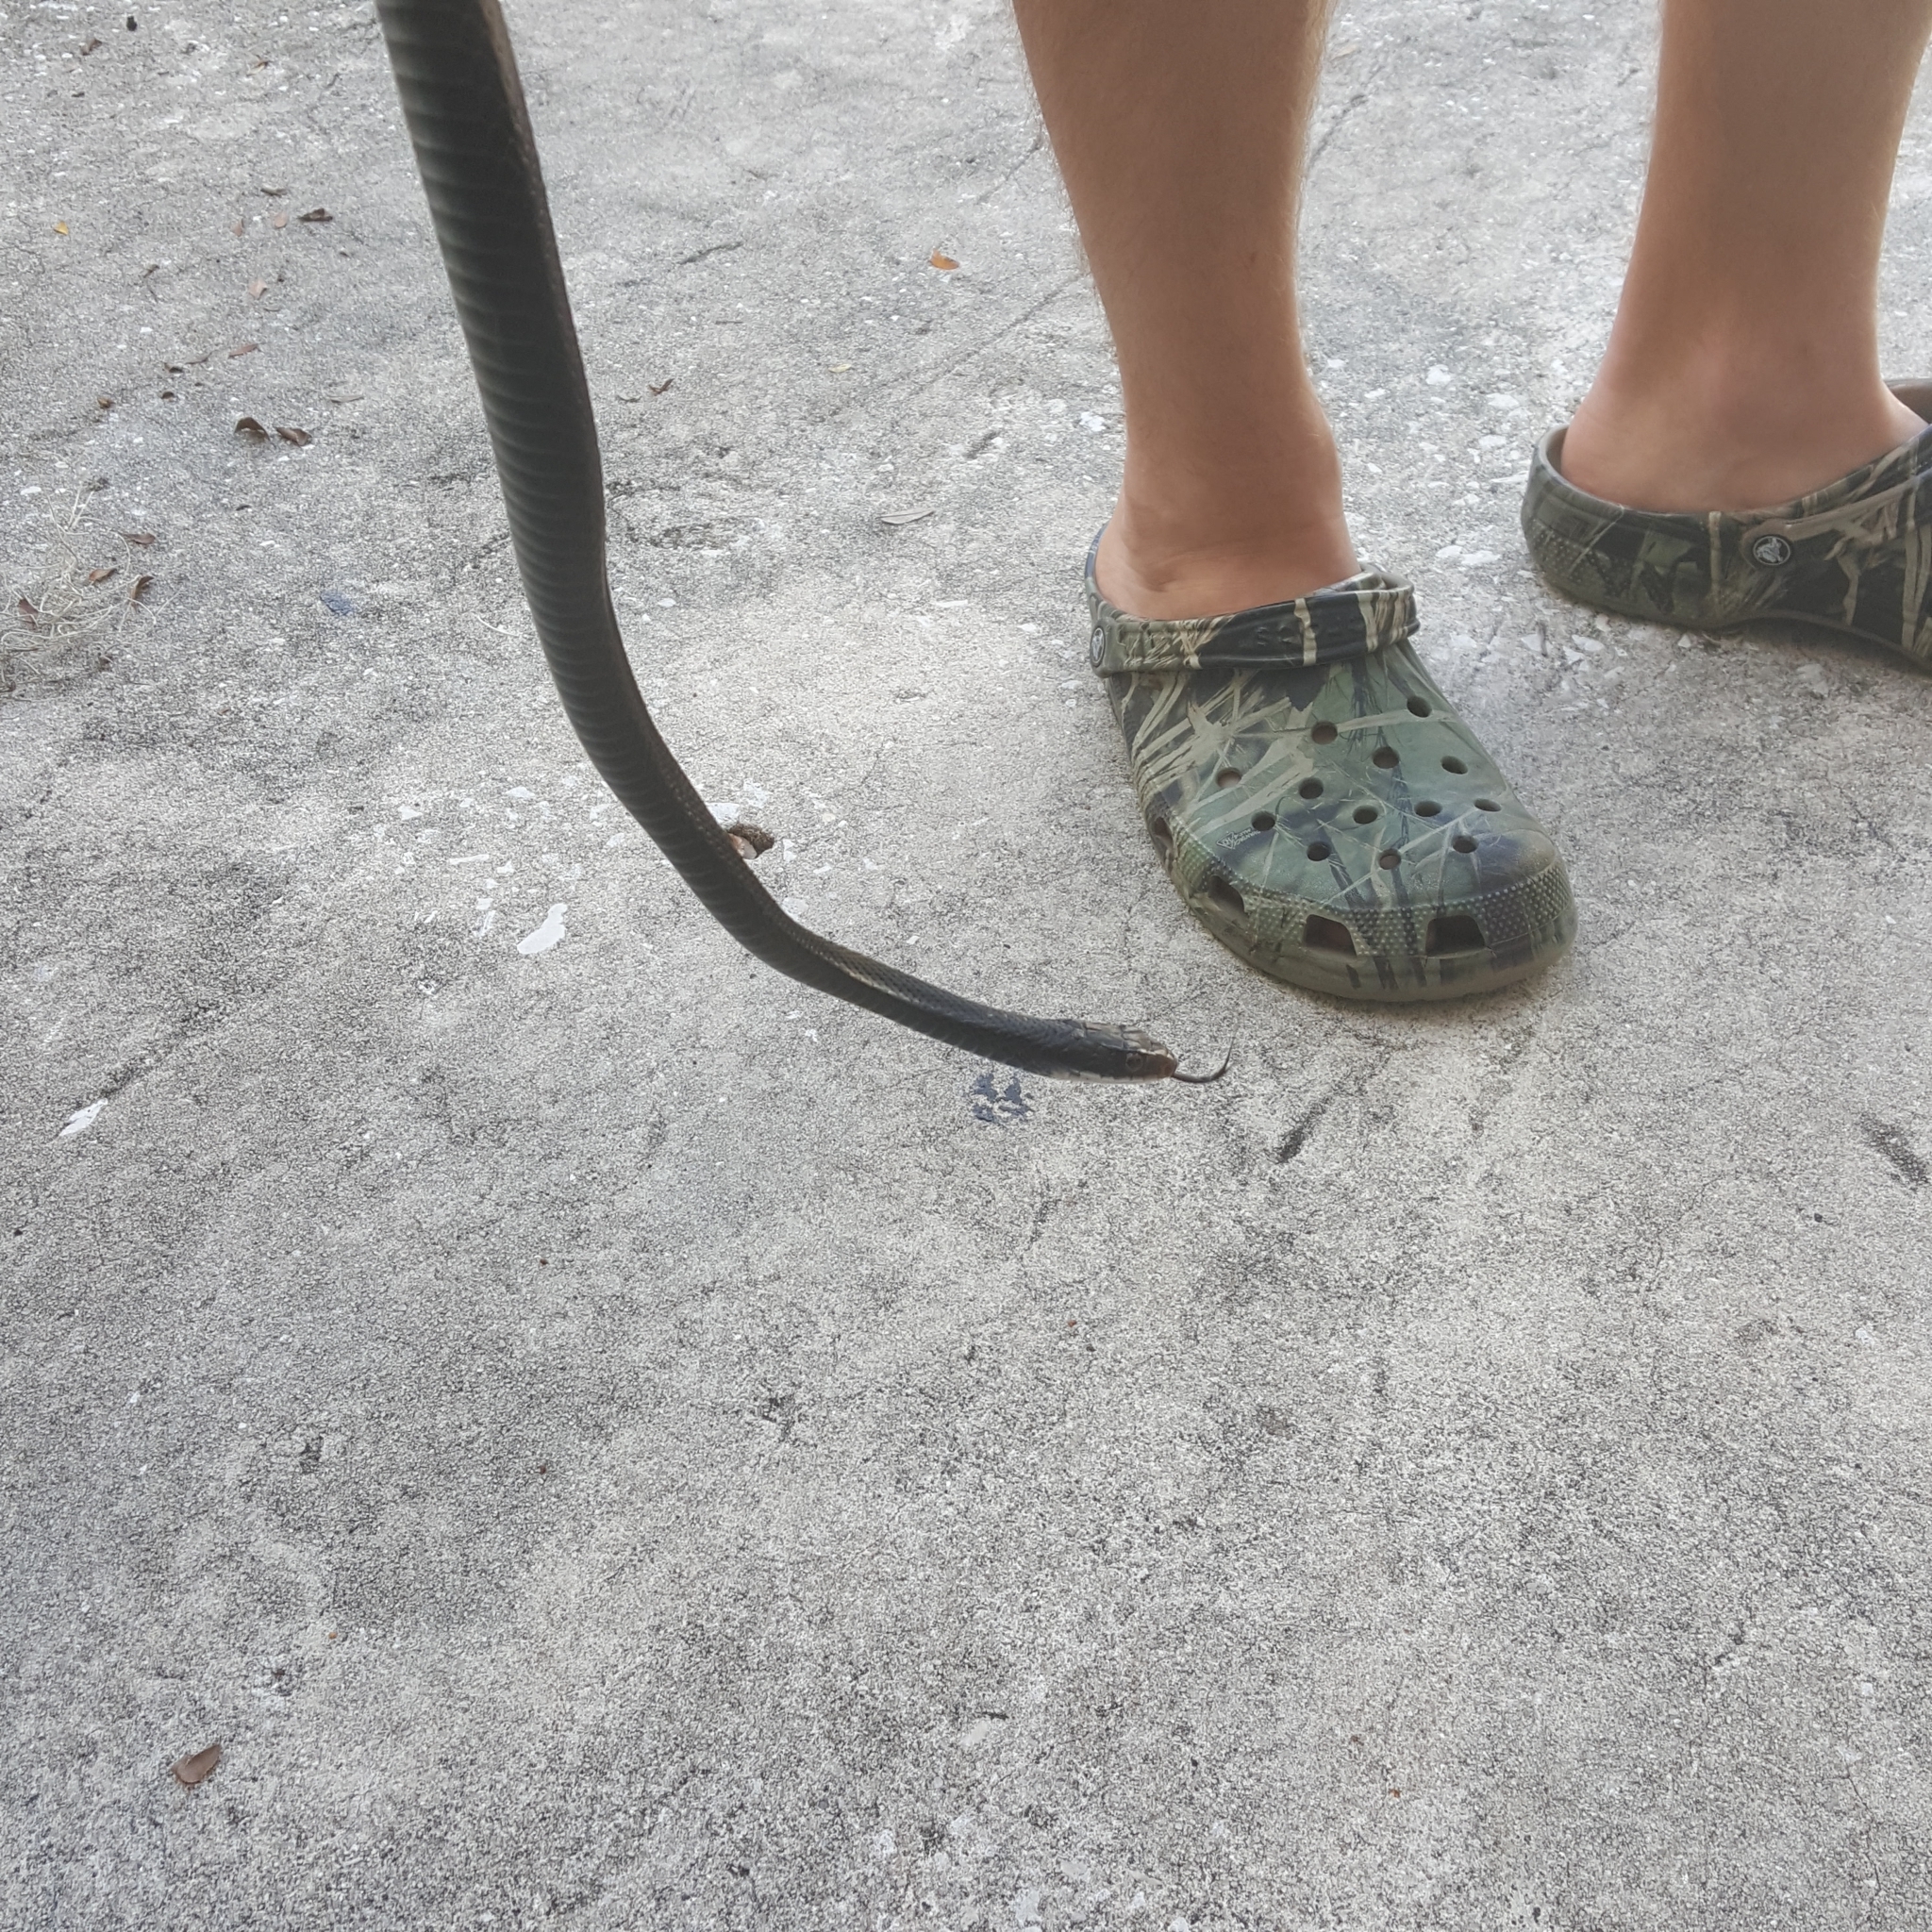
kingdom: Animalia
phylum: Chordata
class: Squamata
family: Colubridae
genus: Coluber
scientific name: Coluber constrictor
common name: Eastern racer
